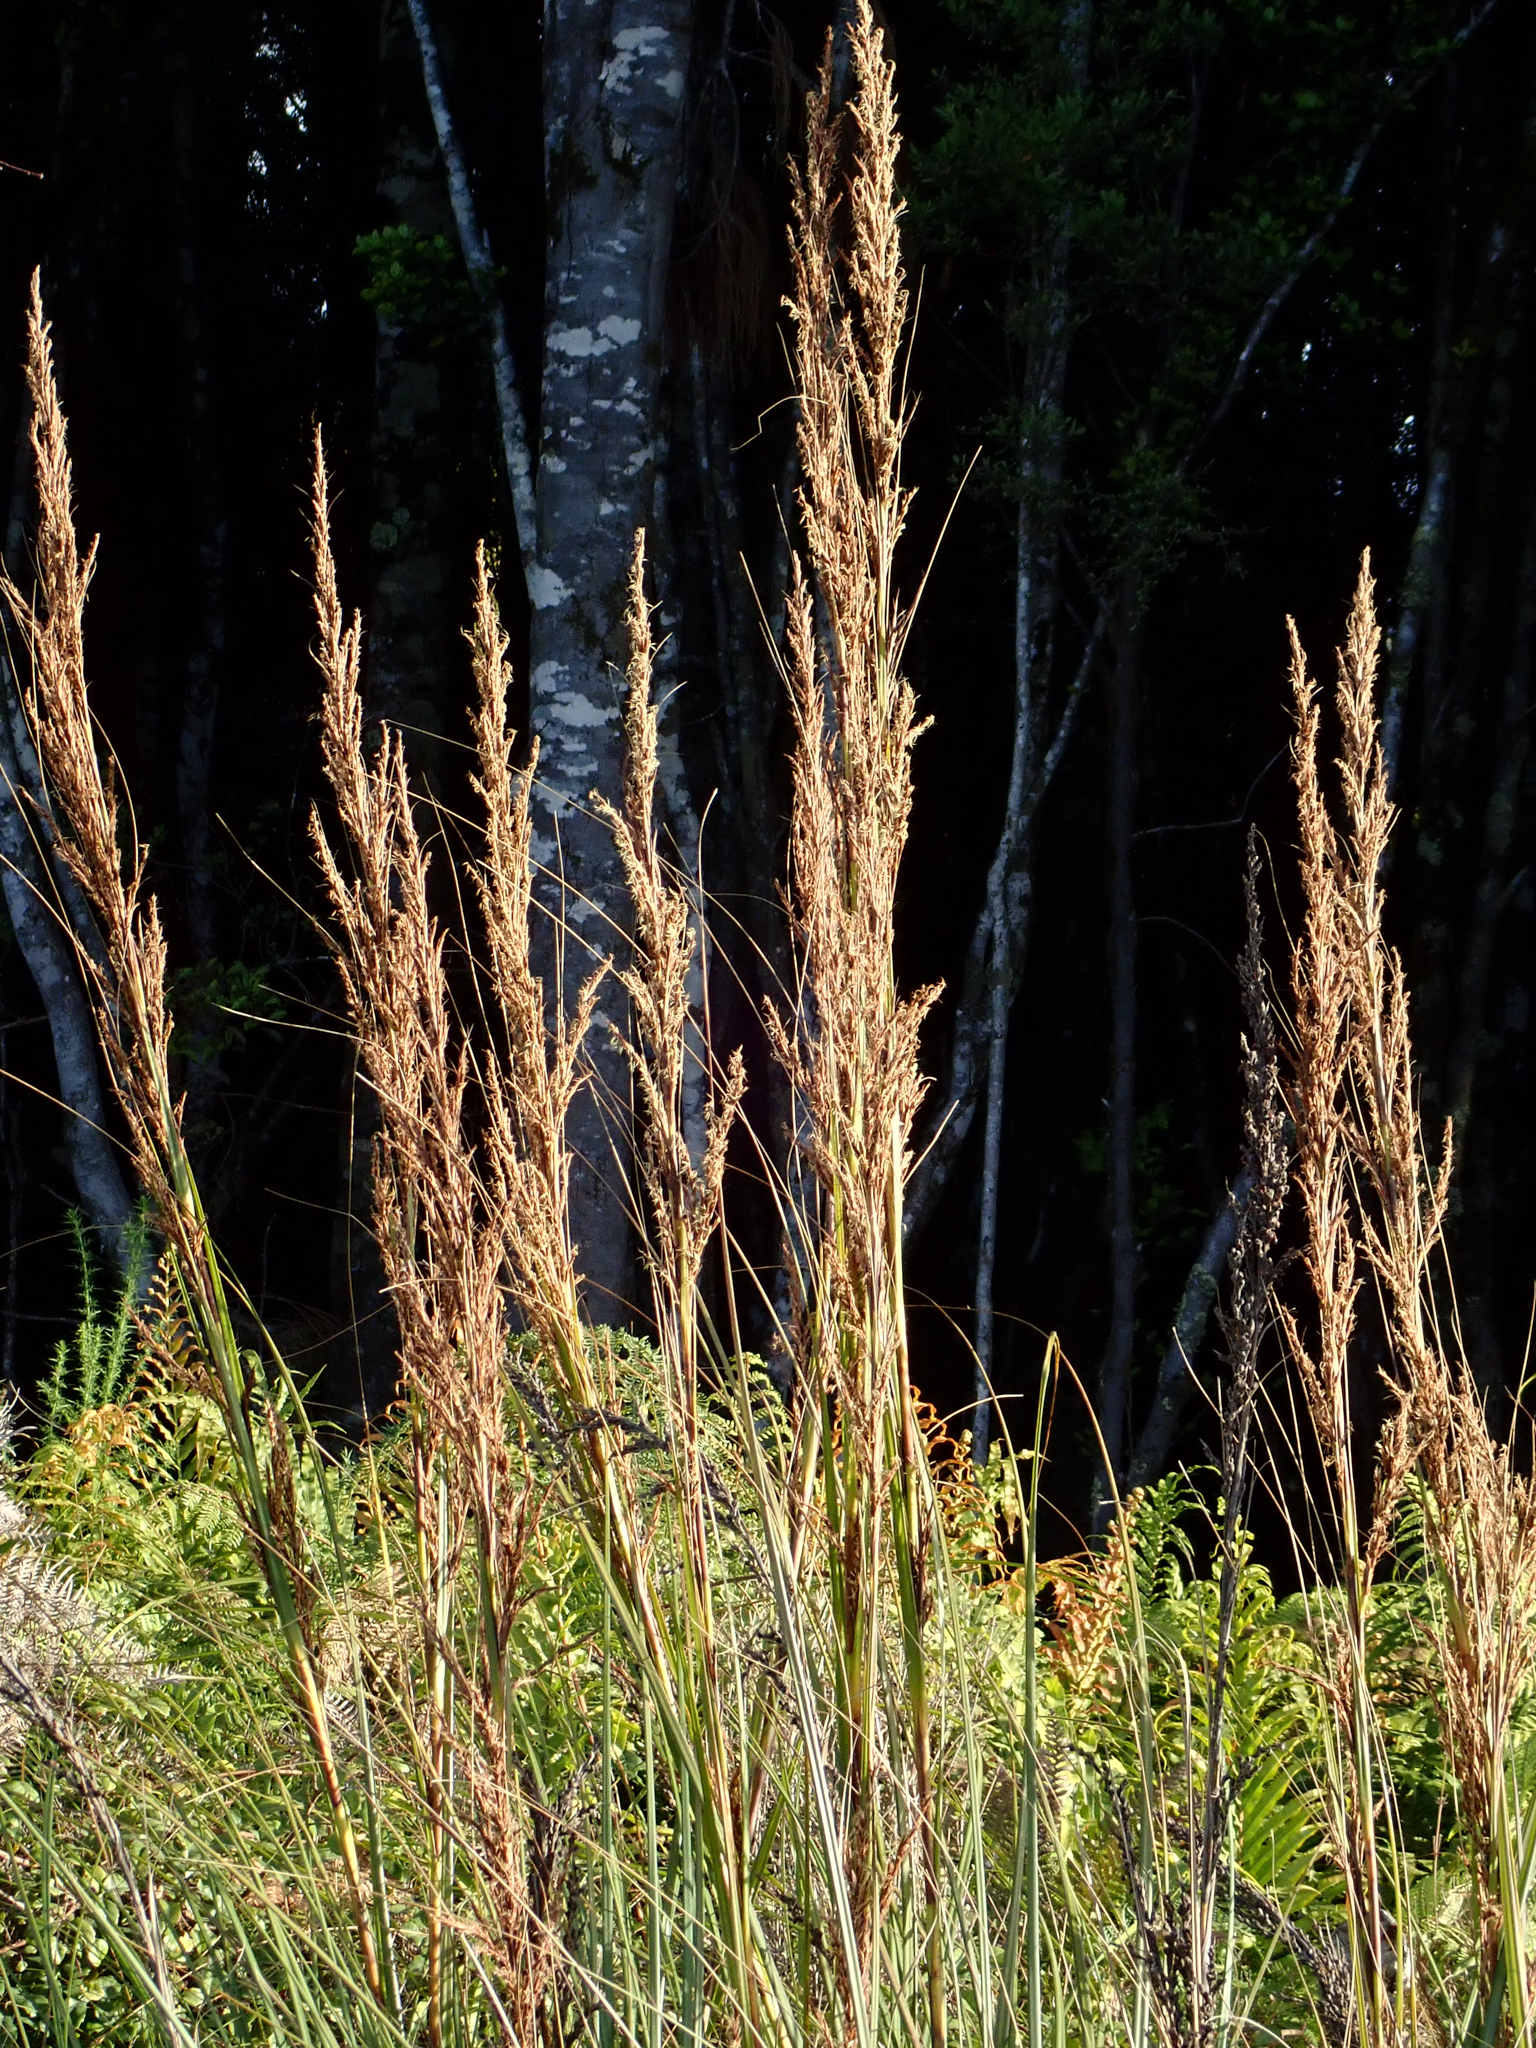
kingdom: Plantae
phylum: Tracheophyta
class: Liliopsida
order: Poales
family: Cyperaceae
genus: Gahnia
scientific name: Gahnia rigida
